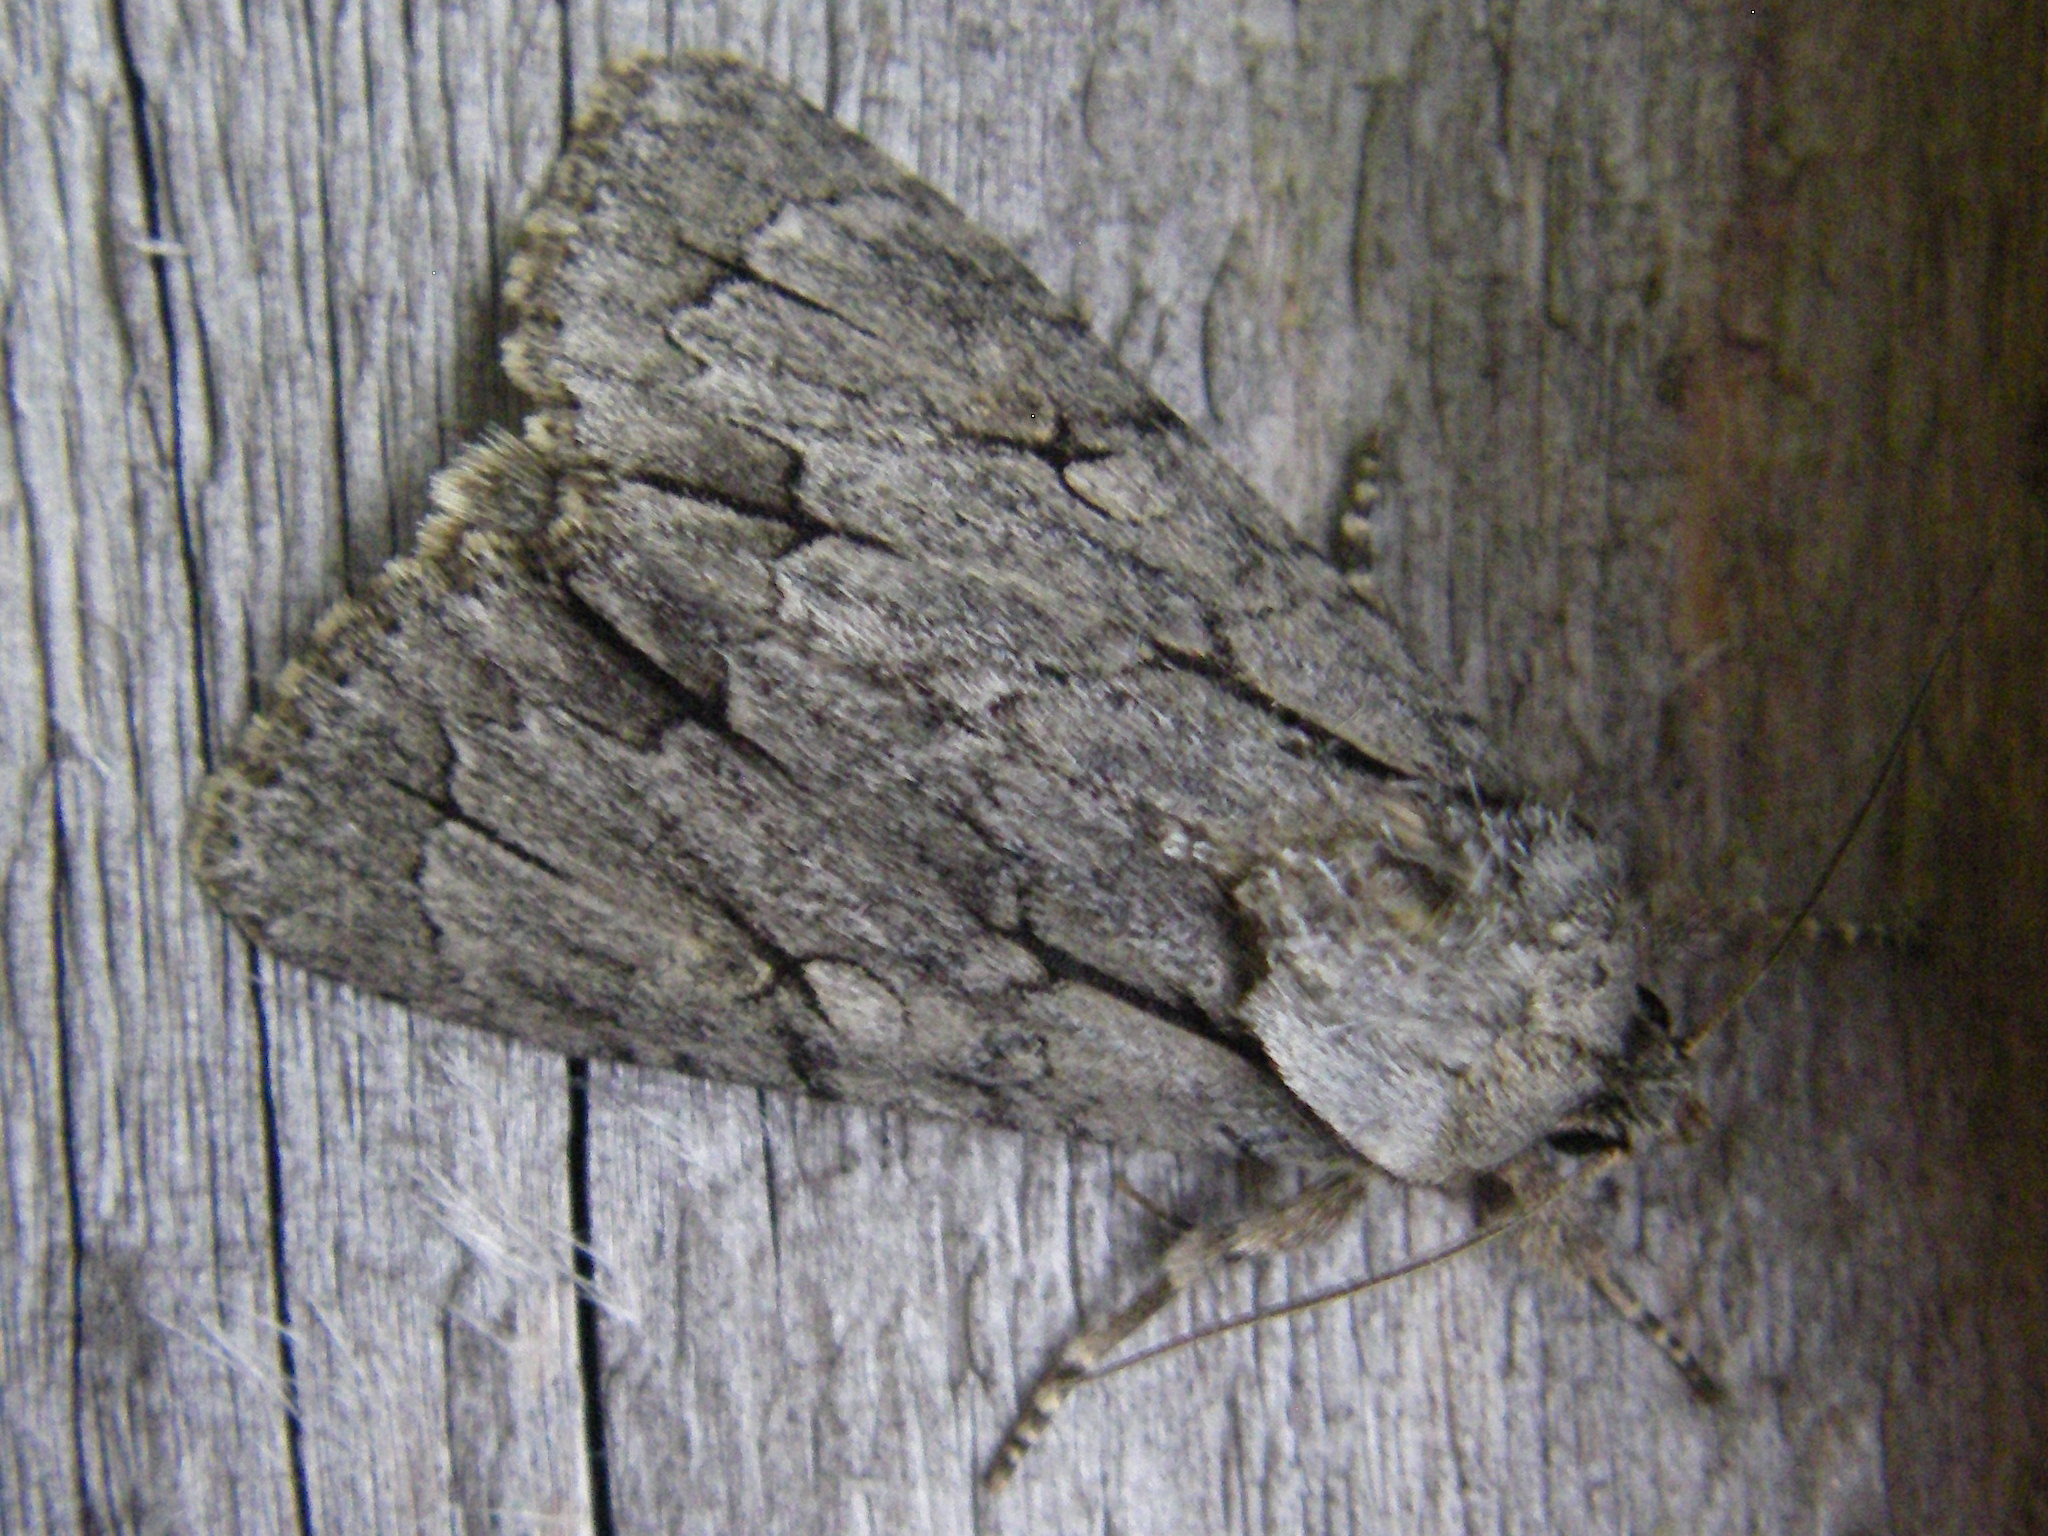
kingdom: Animalia
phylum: Arthropoda
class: Insecta
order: Lepidoptera
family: Noctuidae
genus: Acronicta
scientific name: Acronicta
